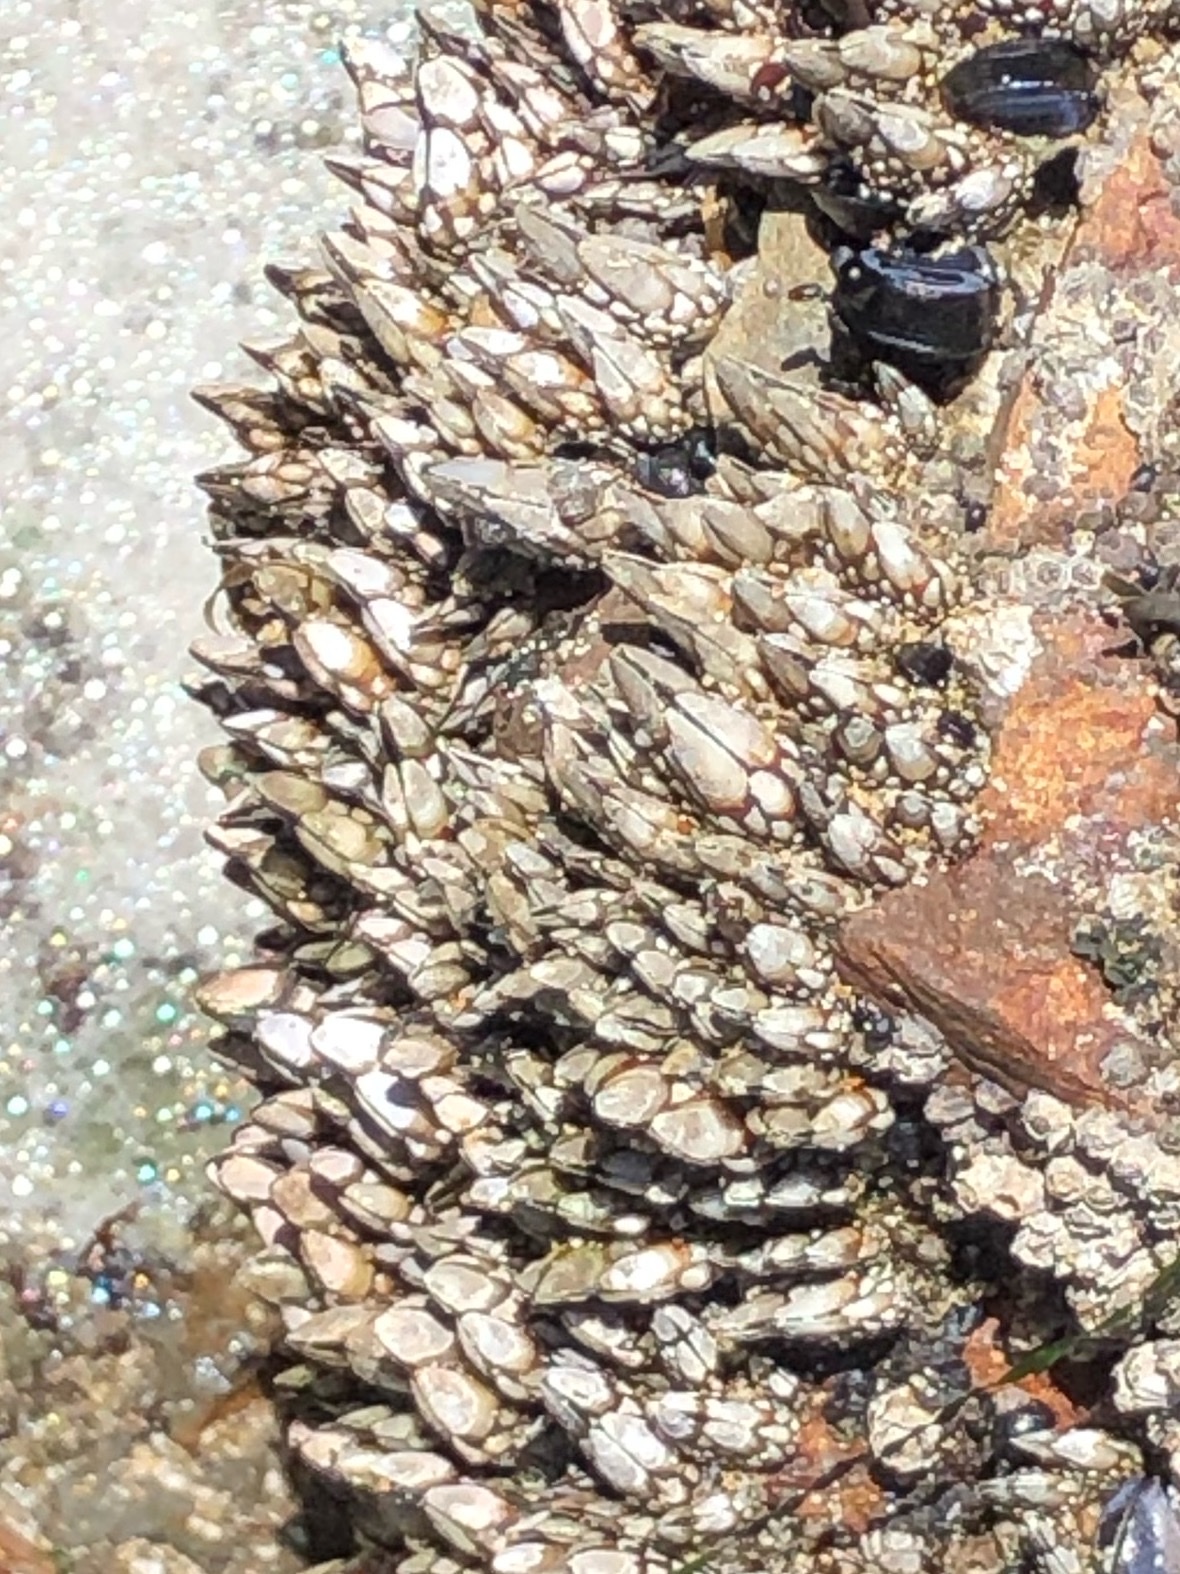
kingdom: Animalia
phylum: Arthropoda
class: Maxillopoda
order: Pedunculata
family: Pollicipedidae
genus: Pollicipes
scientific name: Pollicipes polymerus
